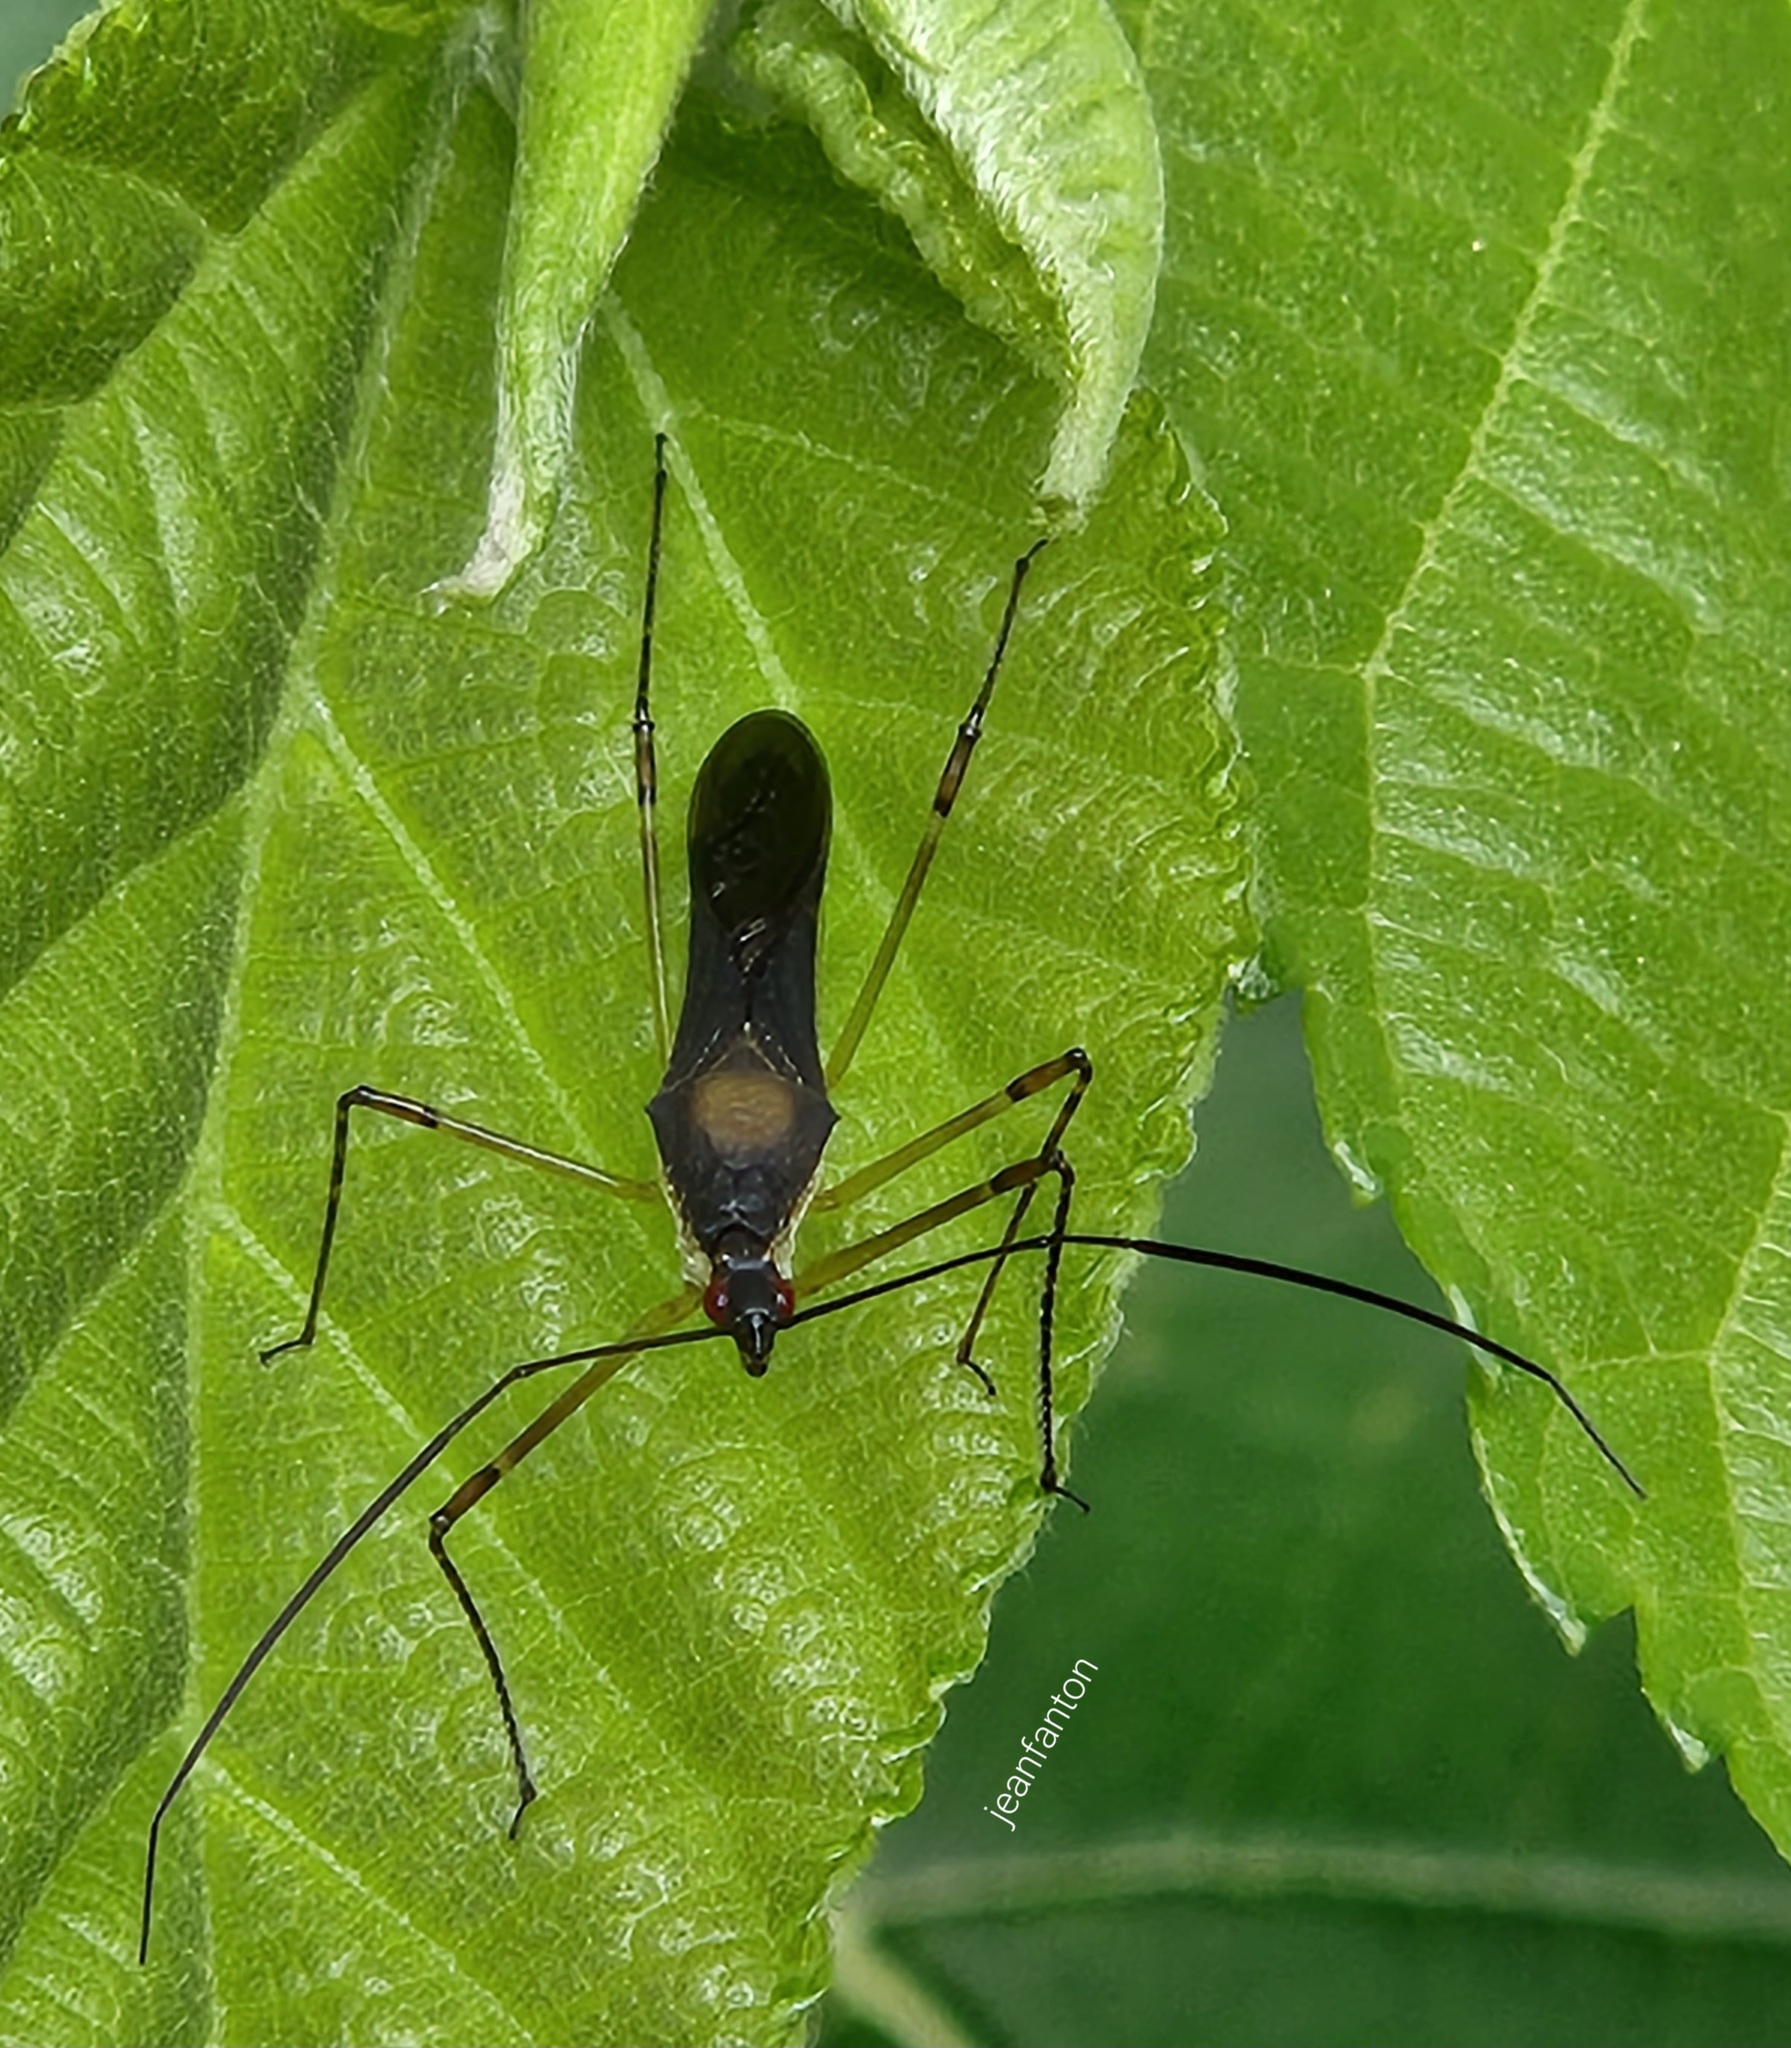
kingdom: Animalia
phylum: Arthropoda
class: Insecta
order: Hemiptera
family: Reduviidae
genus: Zelus
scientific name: Zelus illotus
